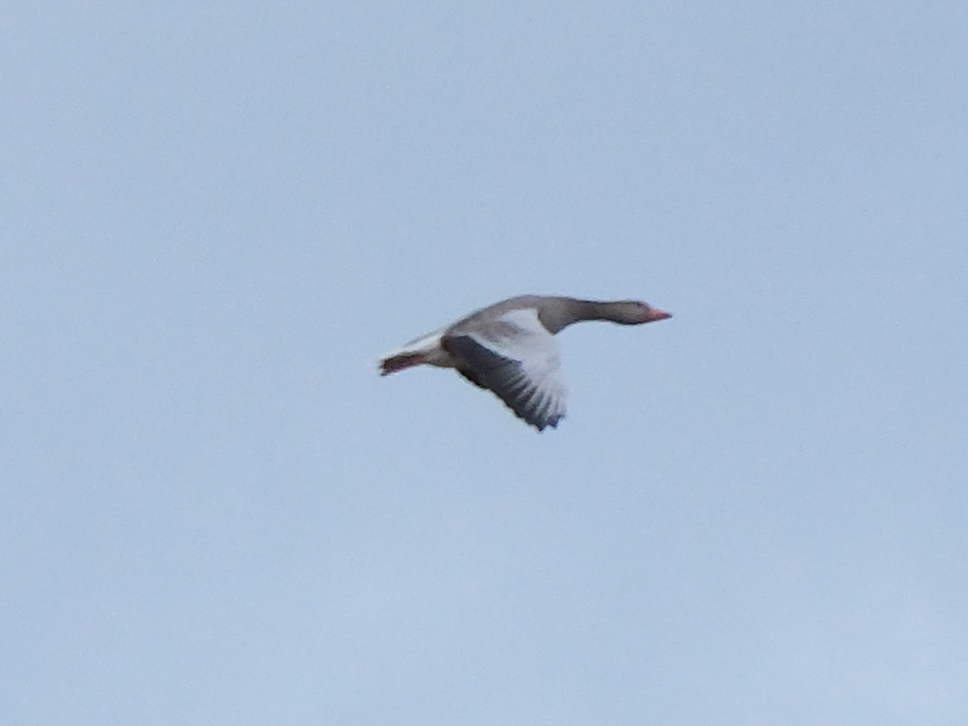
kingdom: Animalia
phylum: Chordata
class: Aves
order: Anseriformes
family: Anatidae
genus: Anser
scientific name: Anser anser
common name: Greylag goose
